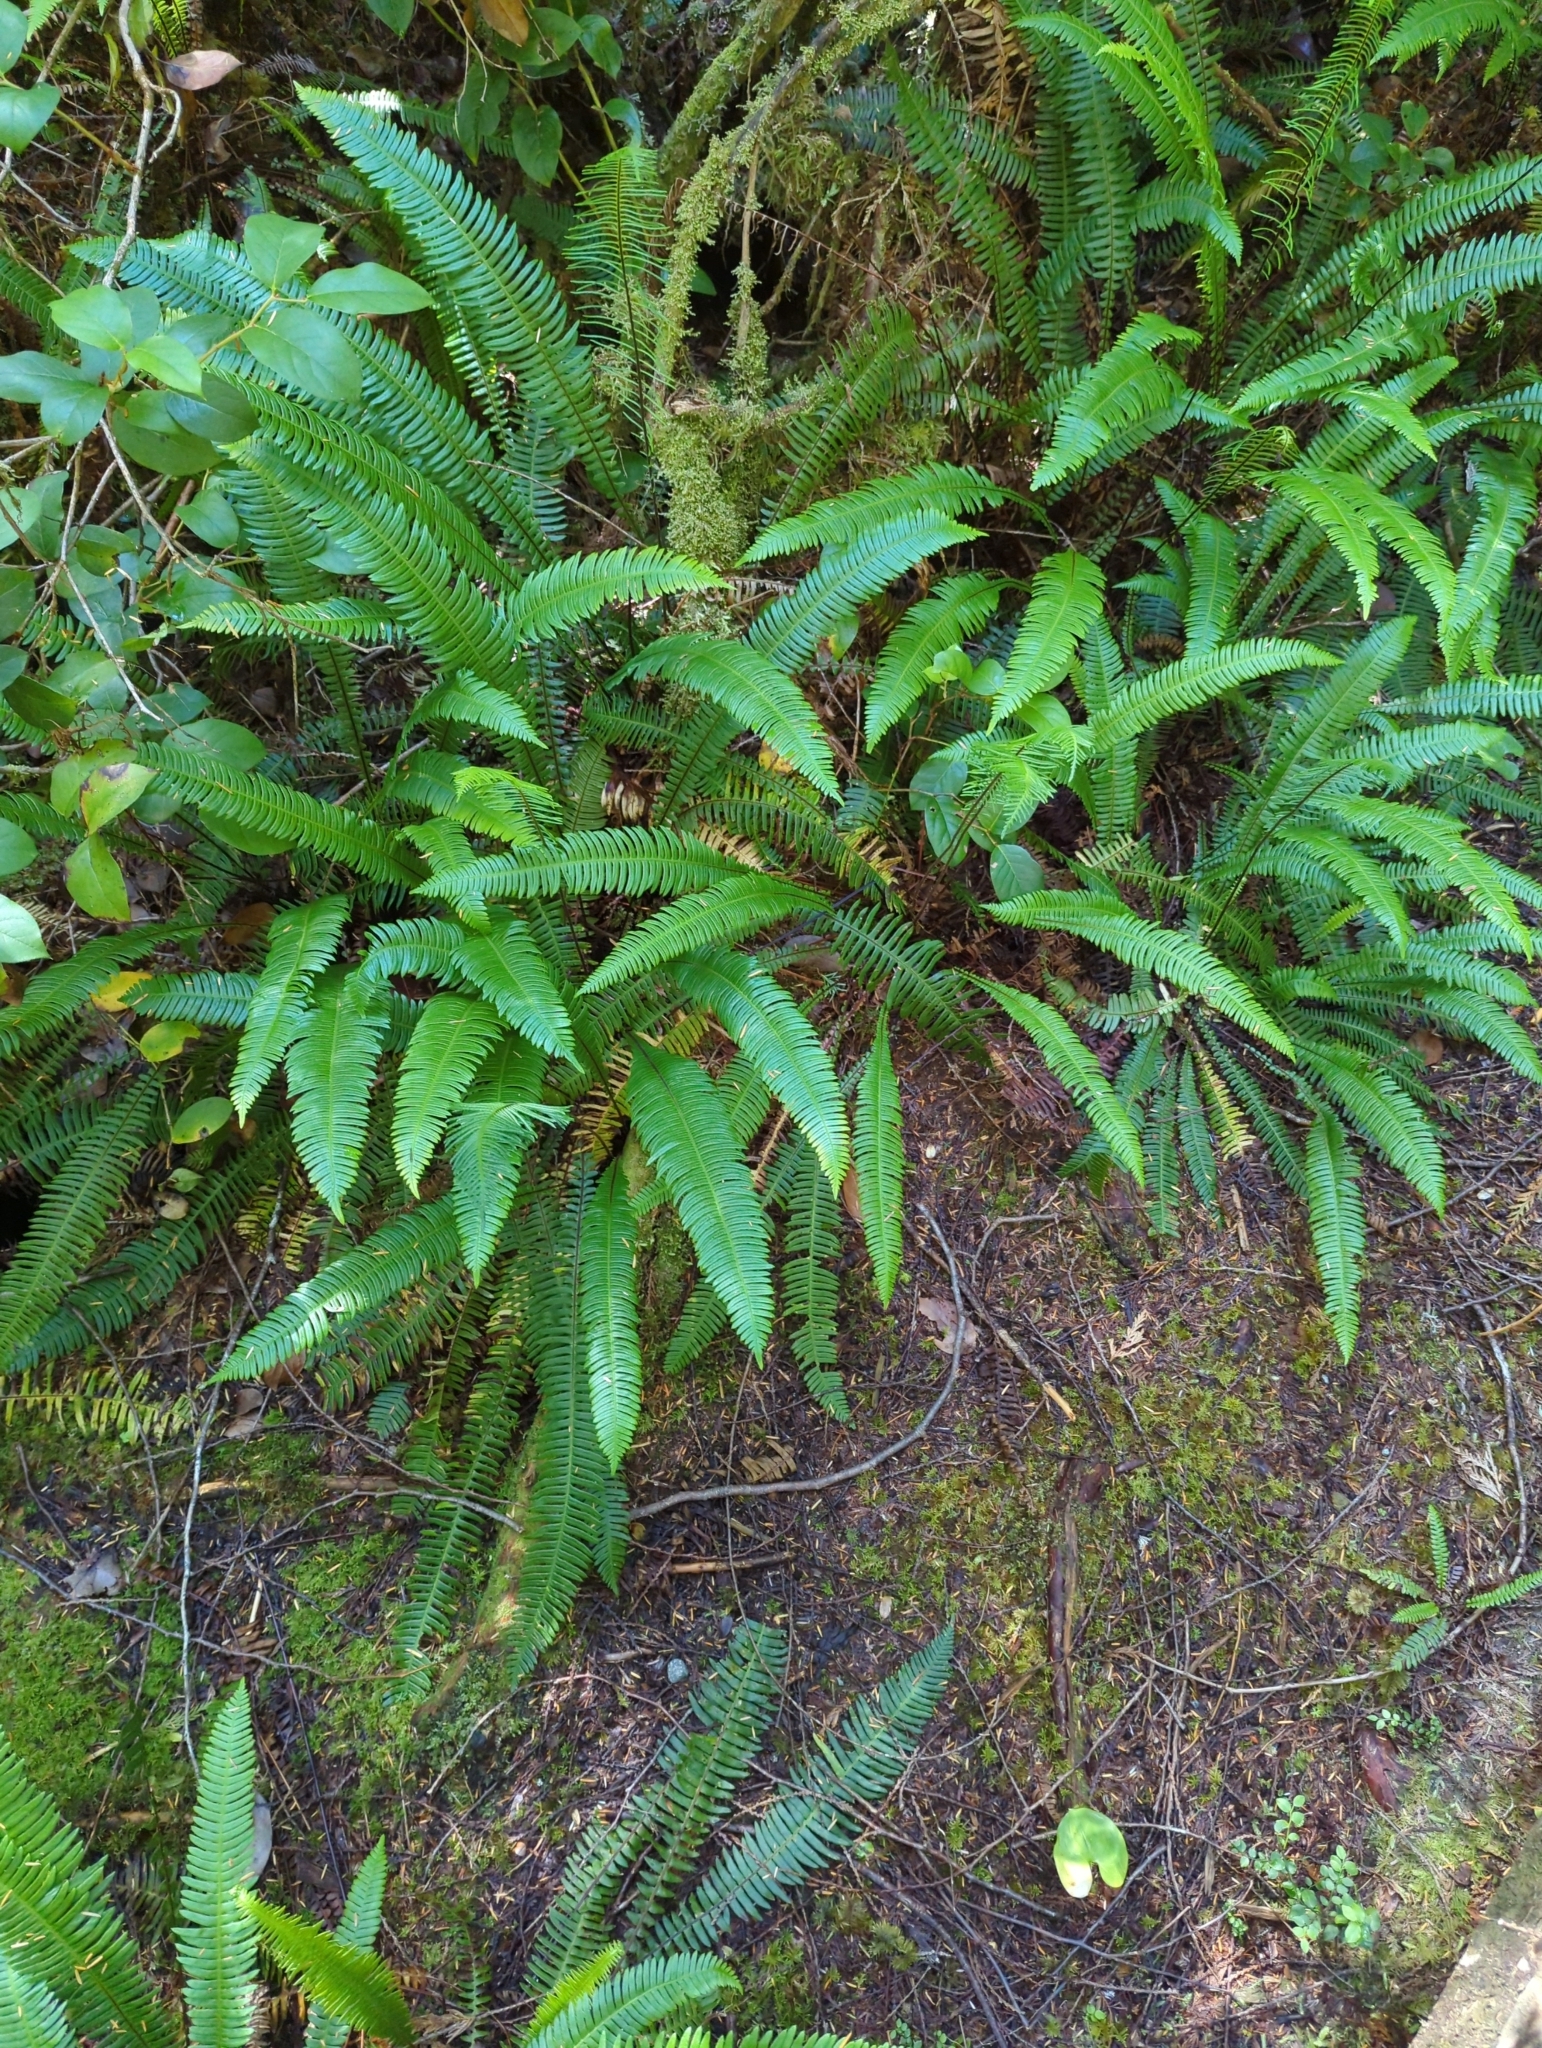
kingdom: Plantae
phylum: Tracheophyta
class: Polypodiopsida
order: Polypodiales
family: Blechnaceae
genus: Struthiopteris
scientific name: Struthiopteris spicant
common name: Deer fern
